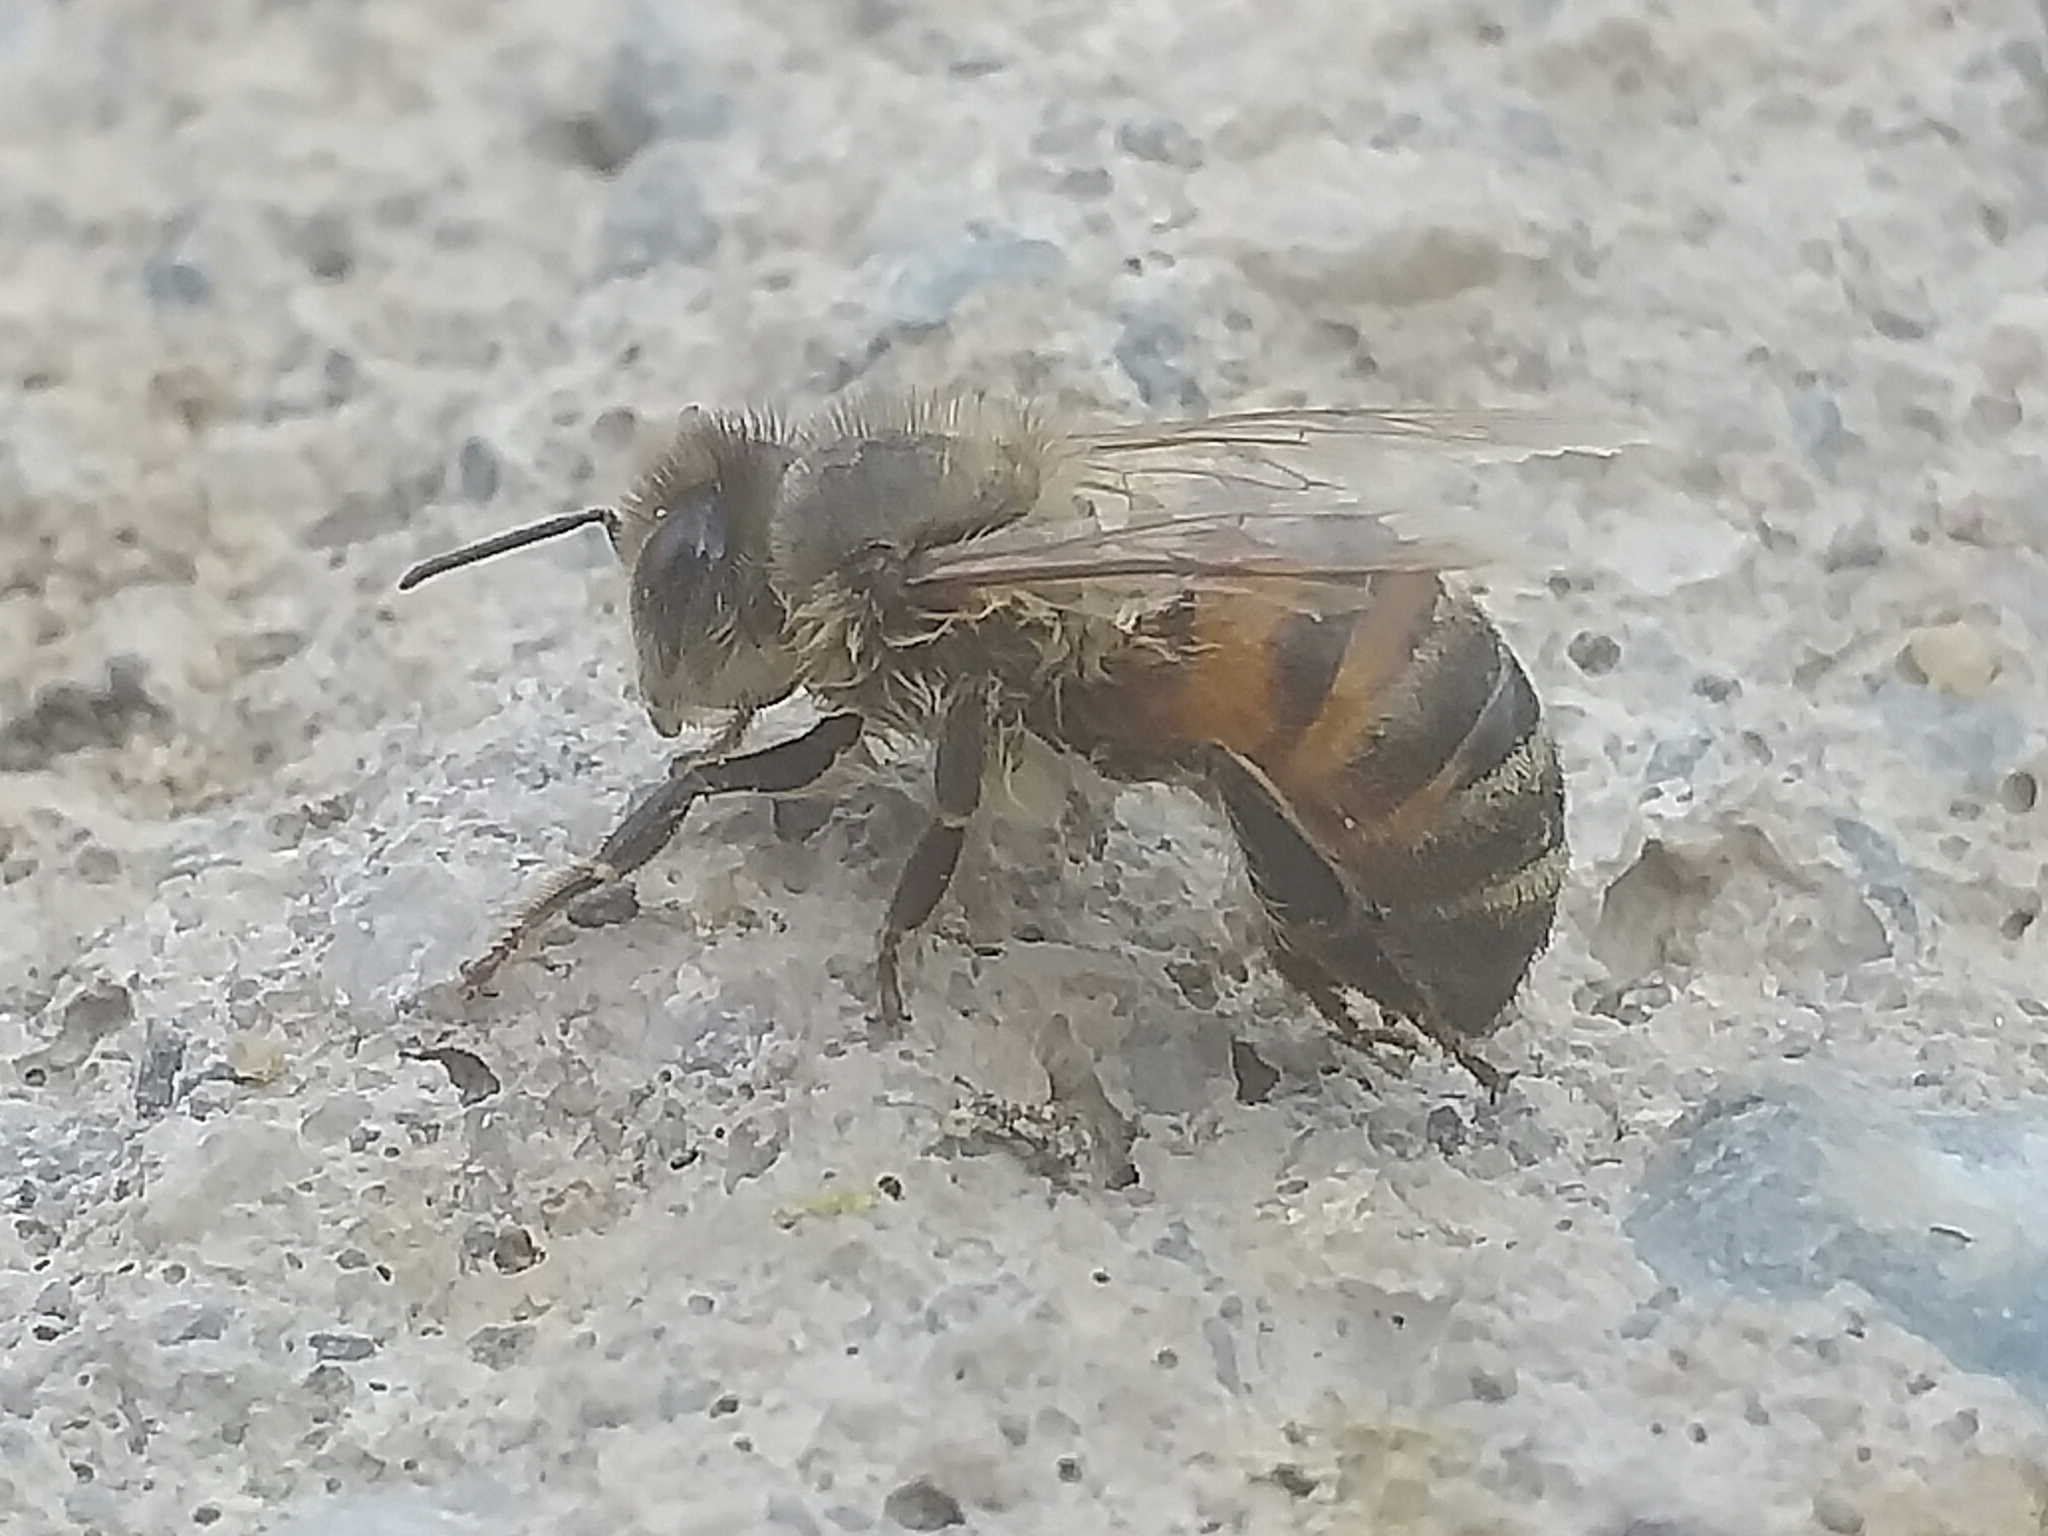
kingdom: Animalia
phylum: Arthropoda
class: Insecta
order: Hymenoptera
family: Apidae
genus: Apis
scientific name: Apis mellifera
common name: Honey bee
